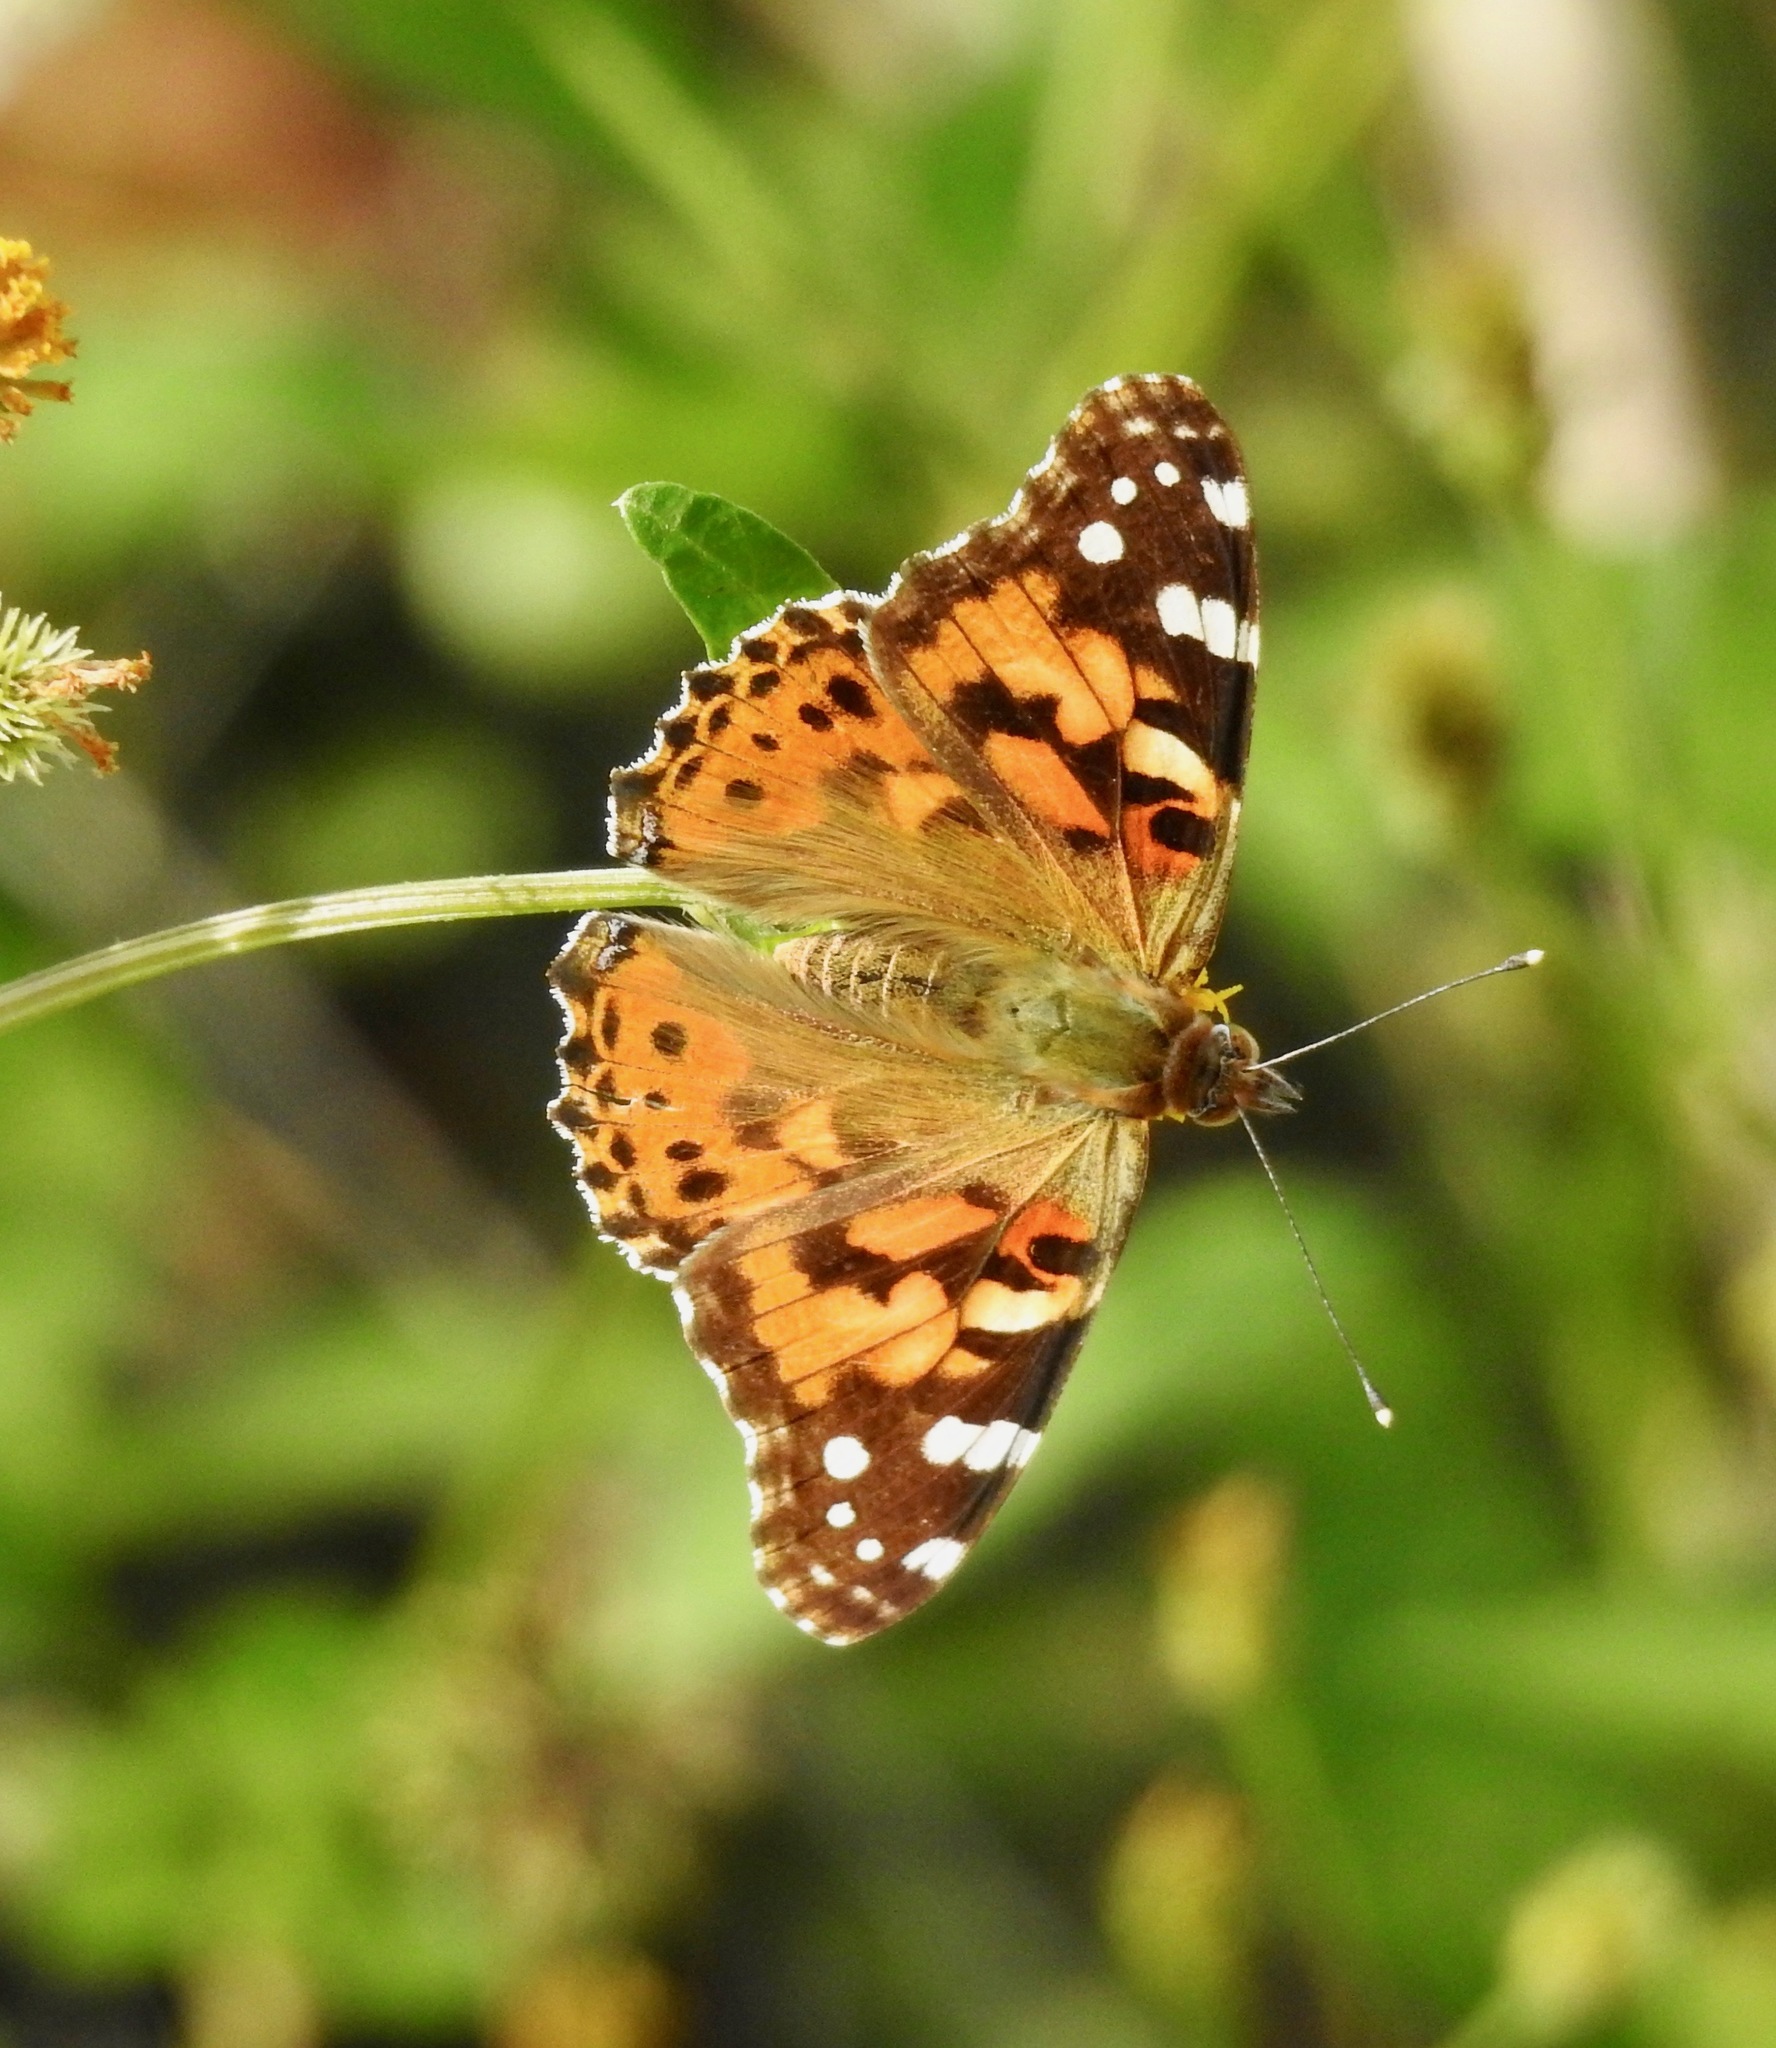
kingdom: Animalia
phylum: Arthropoda
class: Insecta
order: Lepidoptera
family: Nymphalidae
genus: Vanessa
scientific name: Vanessa cardui
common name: Painted lady
